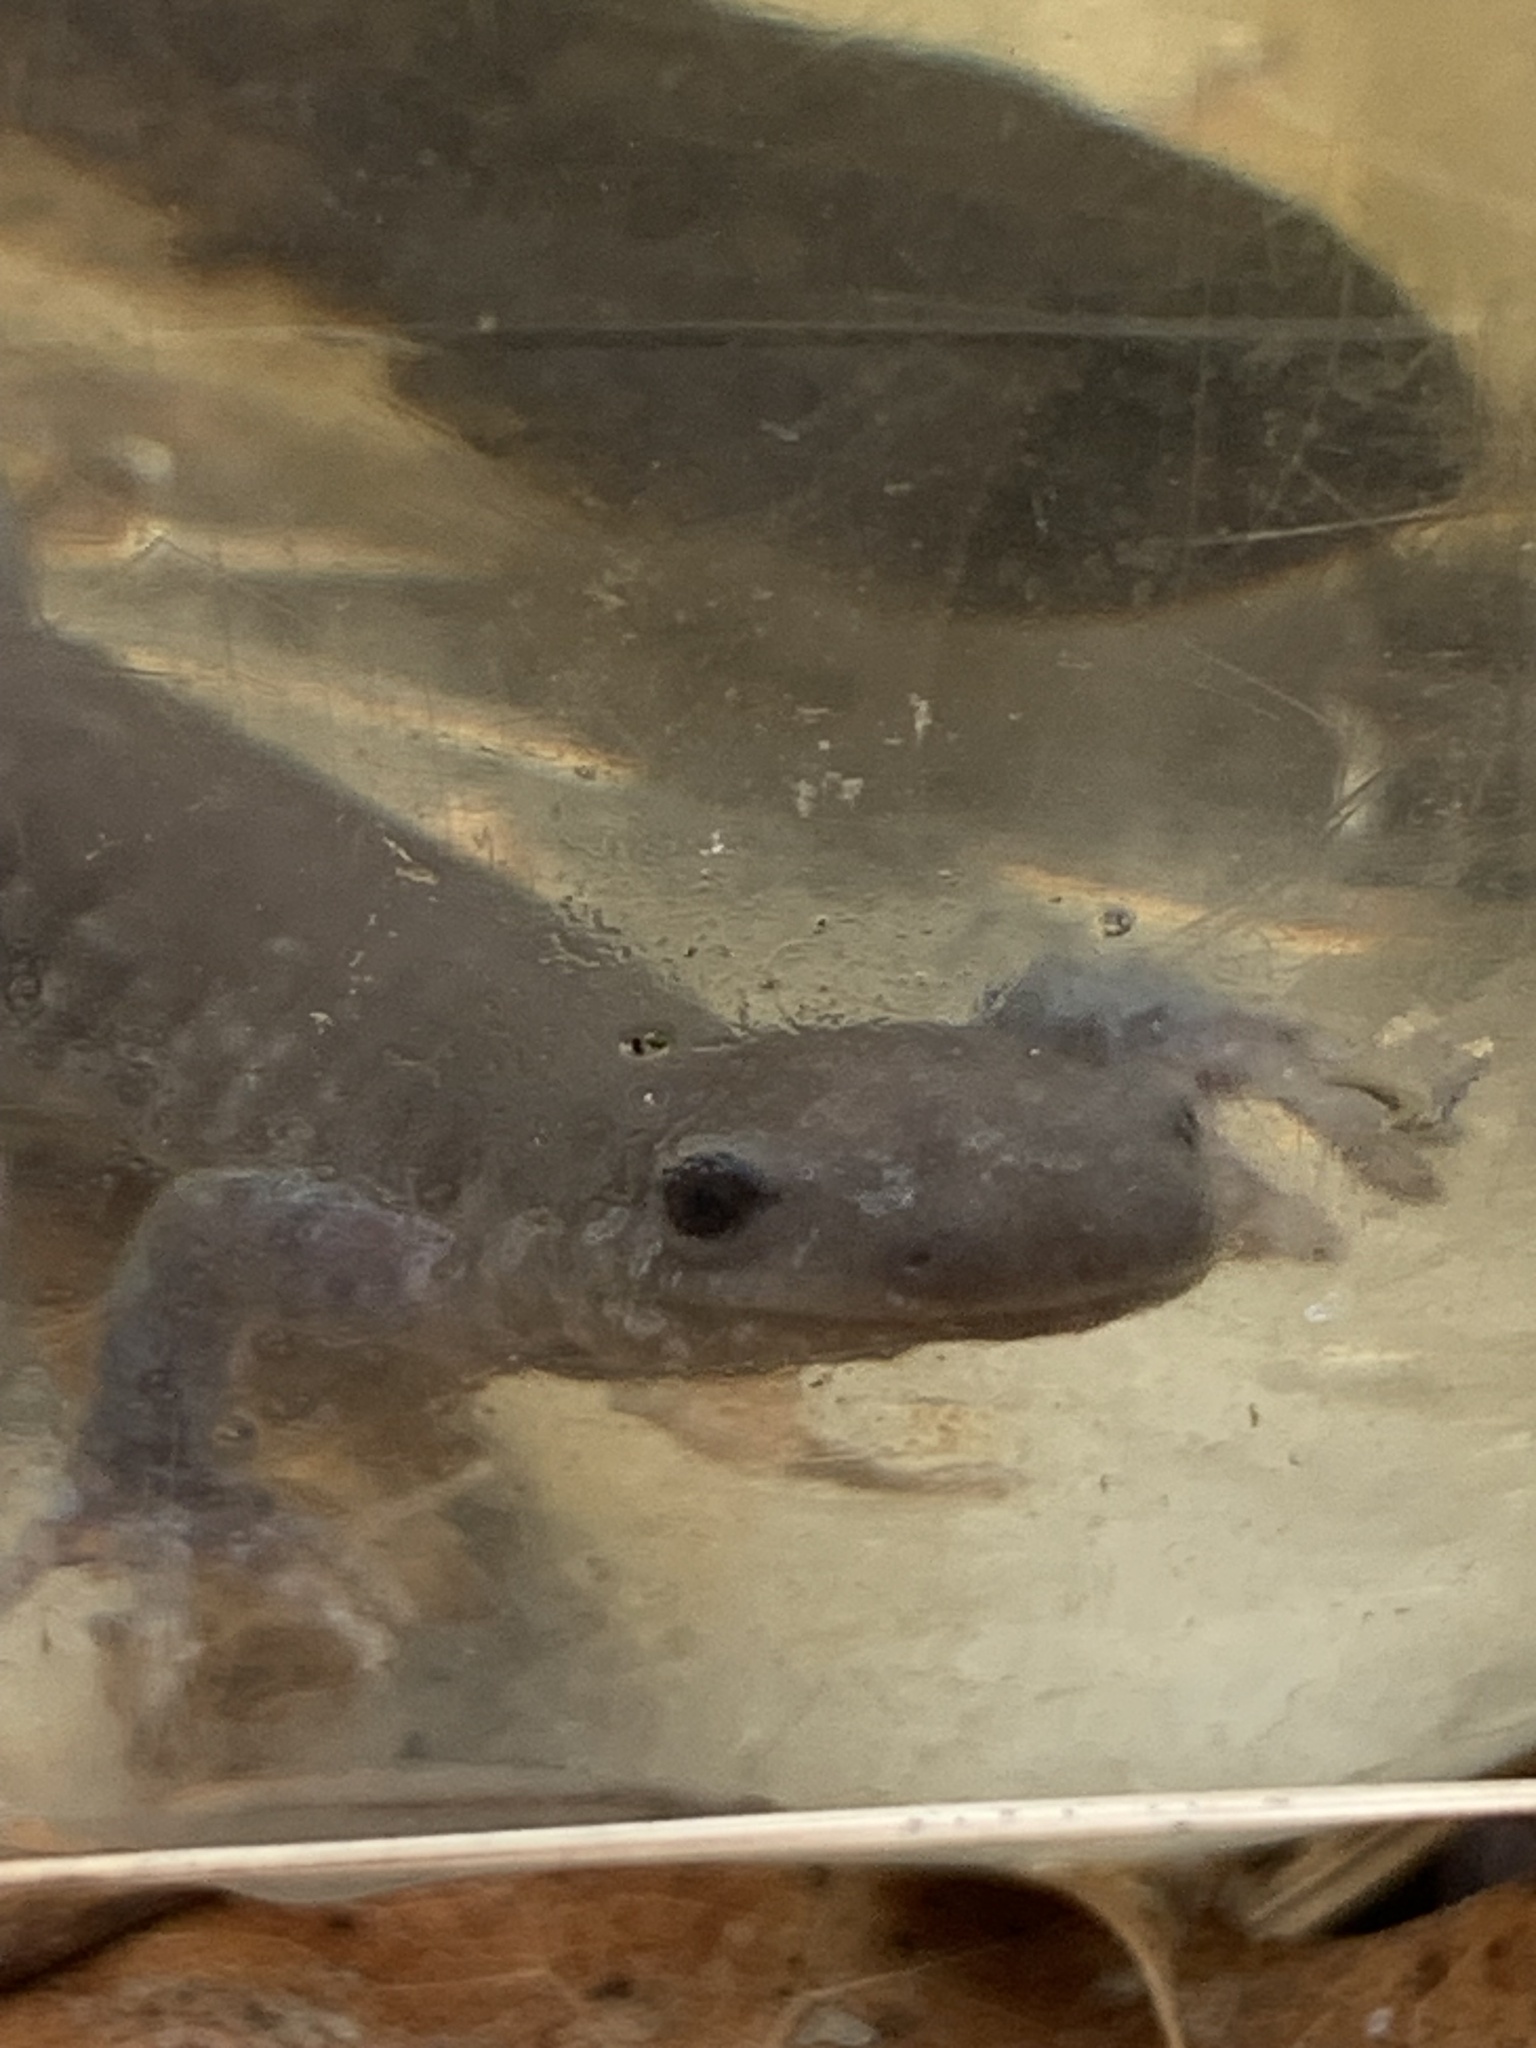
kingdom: Animalia
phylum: Chordata
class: Amphibia
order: Caudata
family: Ambystomatidae
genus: Ambystoma
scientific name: Ambystoma jeffersonianum
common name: Jefferson salamander
